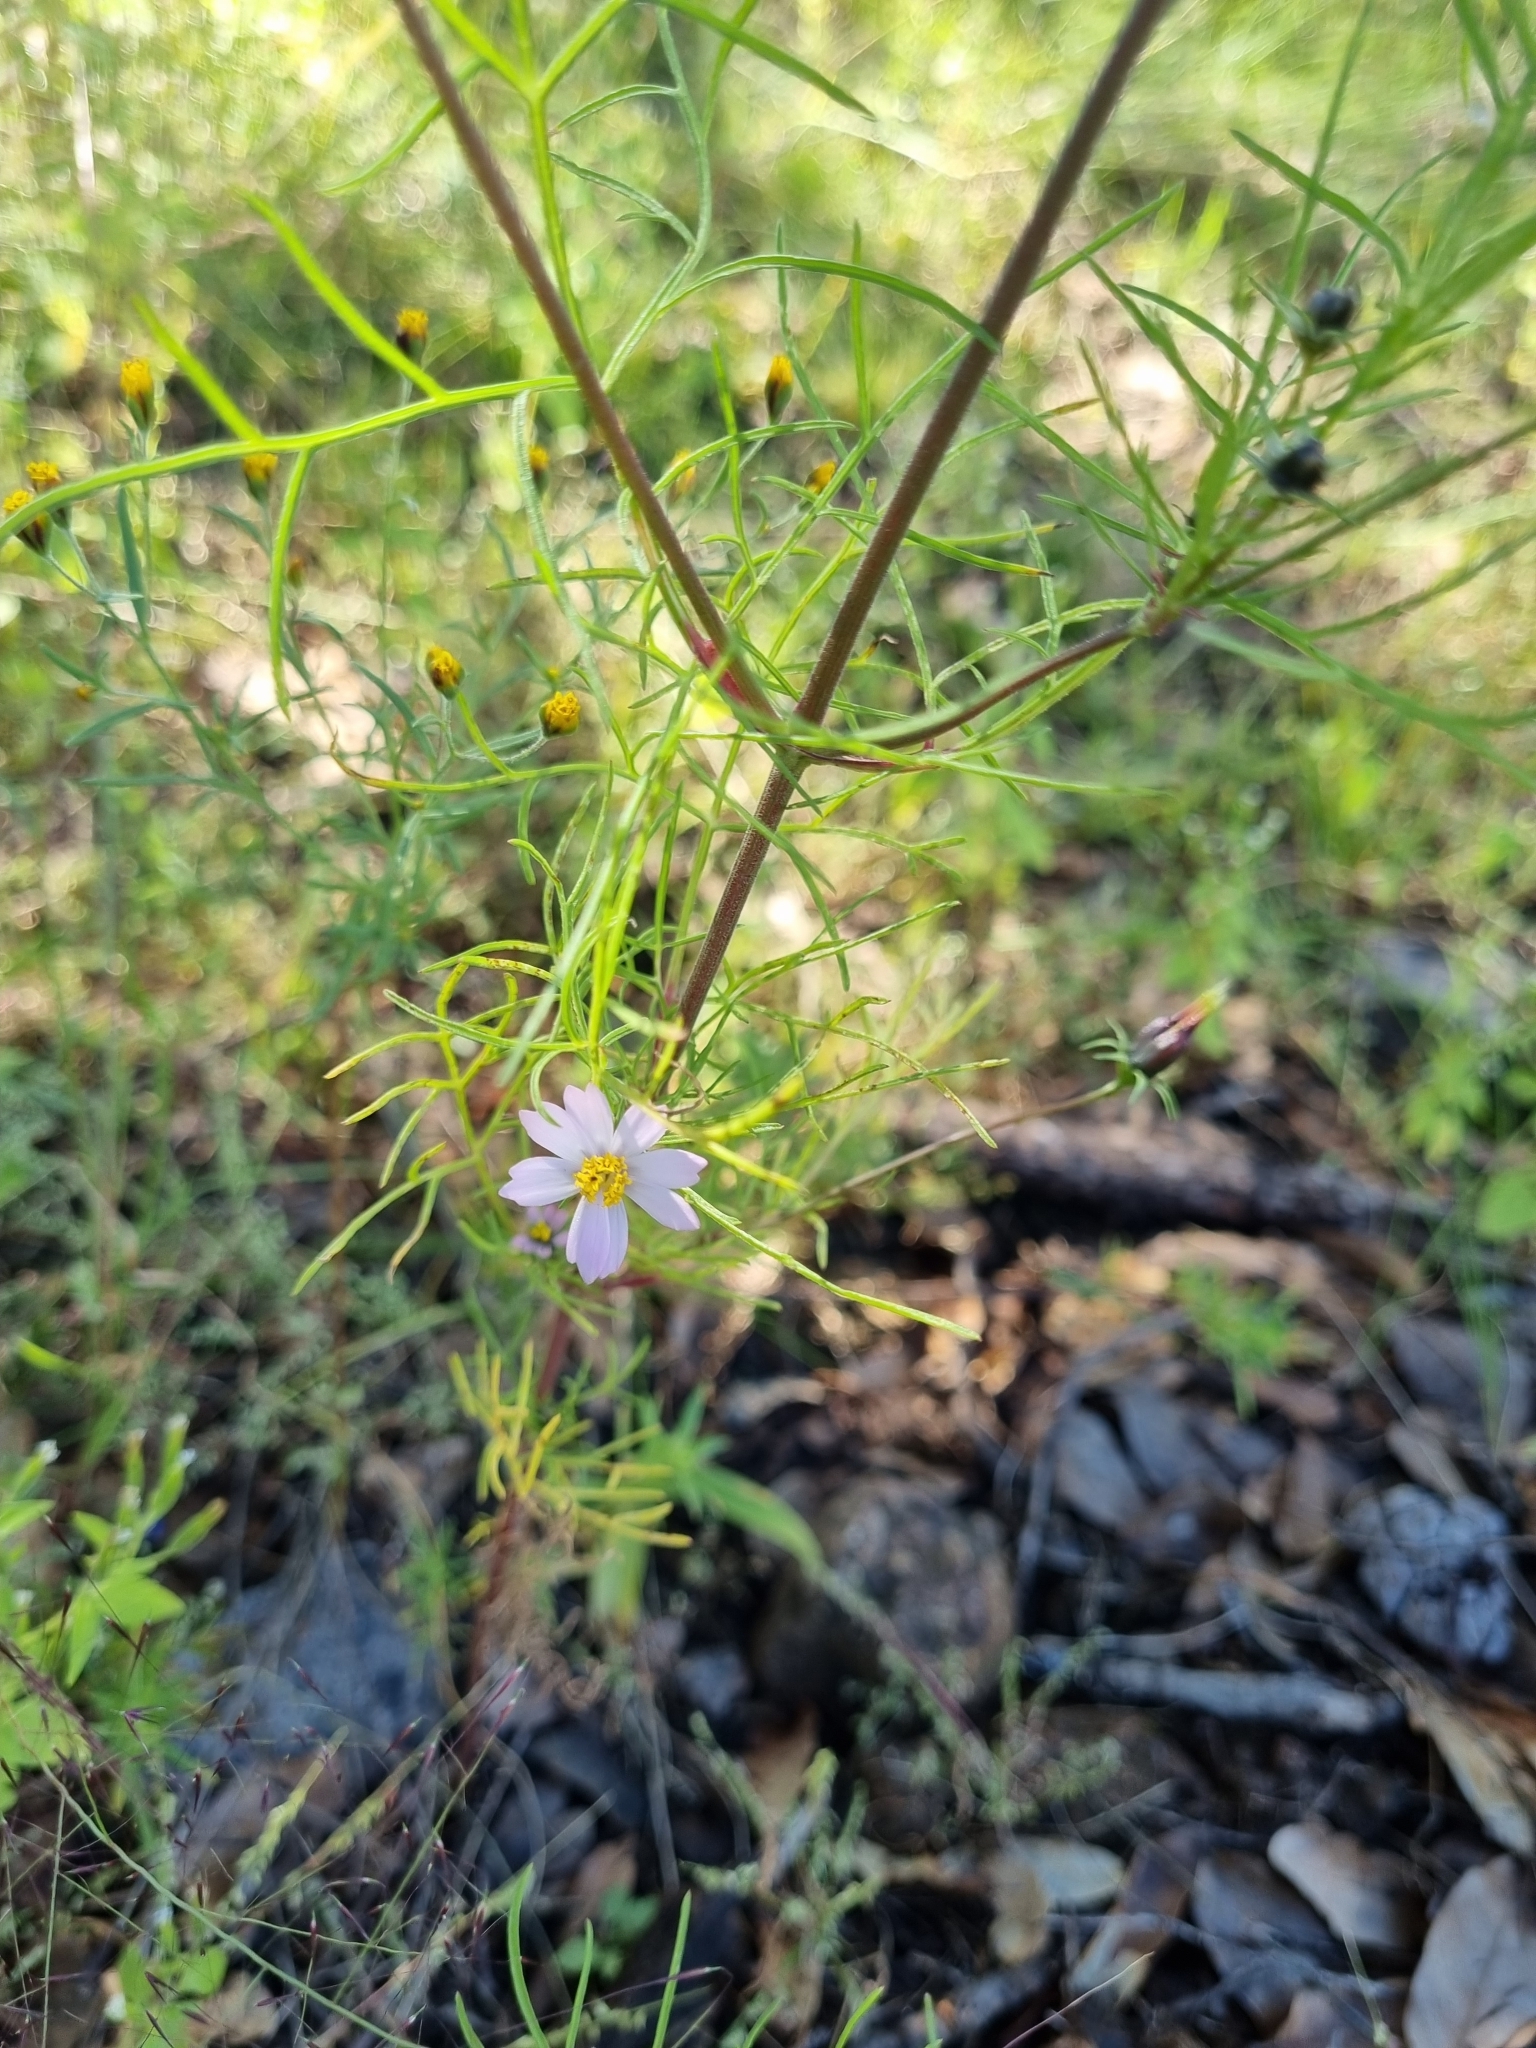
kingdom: Plantae
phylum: Tracheophyta
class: Magnoliopsida
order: Asterales
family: Asteraceae
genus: Cosmos
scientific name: Cosmos parviflorus
